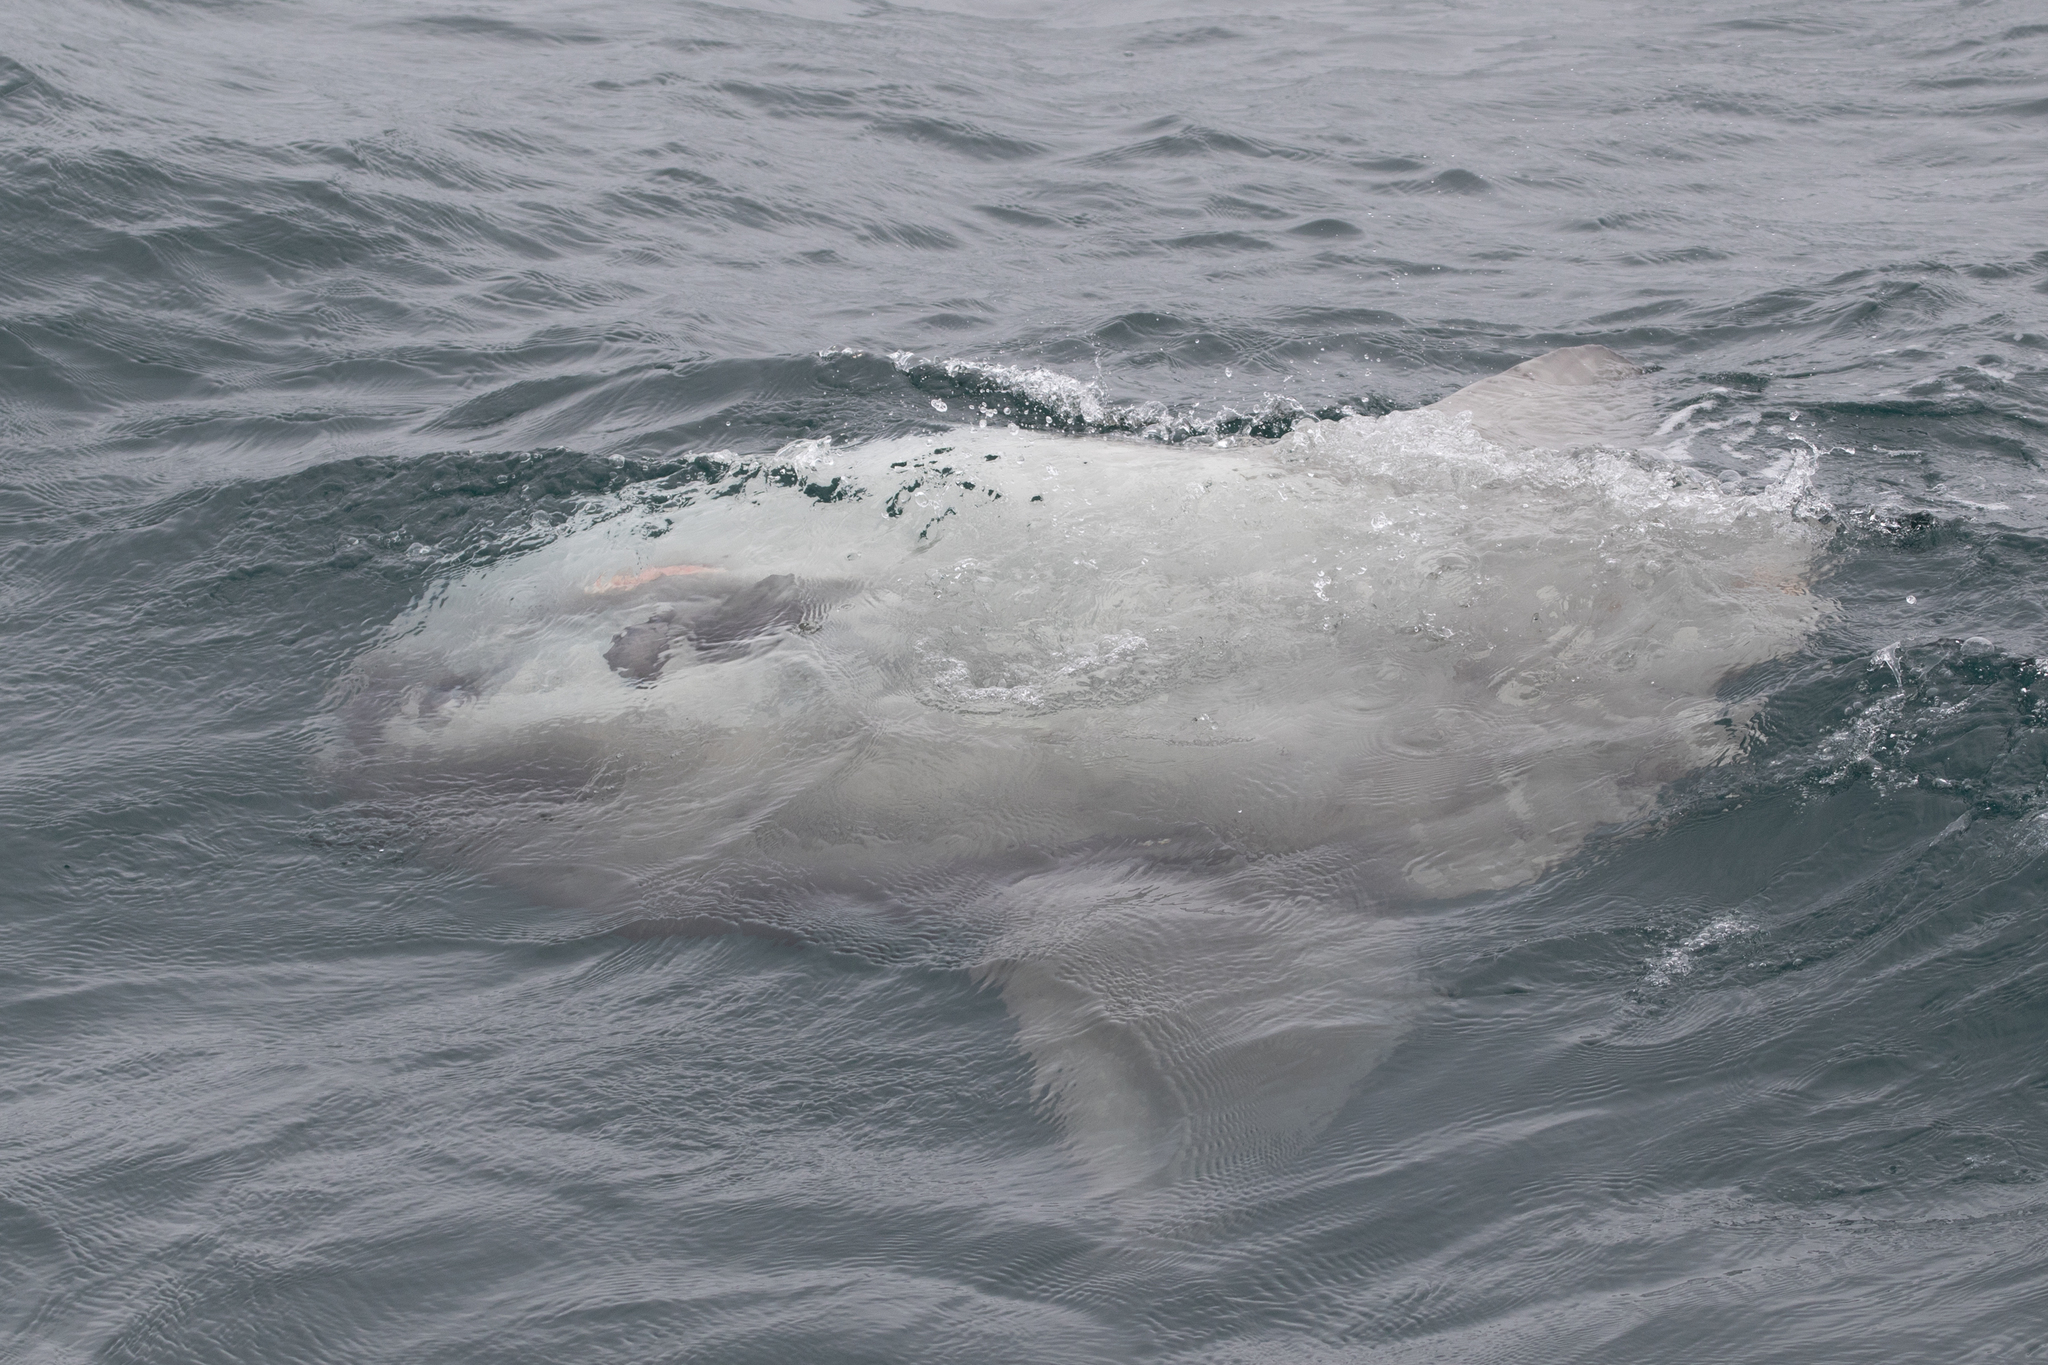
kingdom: Animalia
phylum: Chordata
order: Tetraodontiformes
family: Molidae
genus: Mola
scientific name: Mola mola
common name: Ocean sunfish
